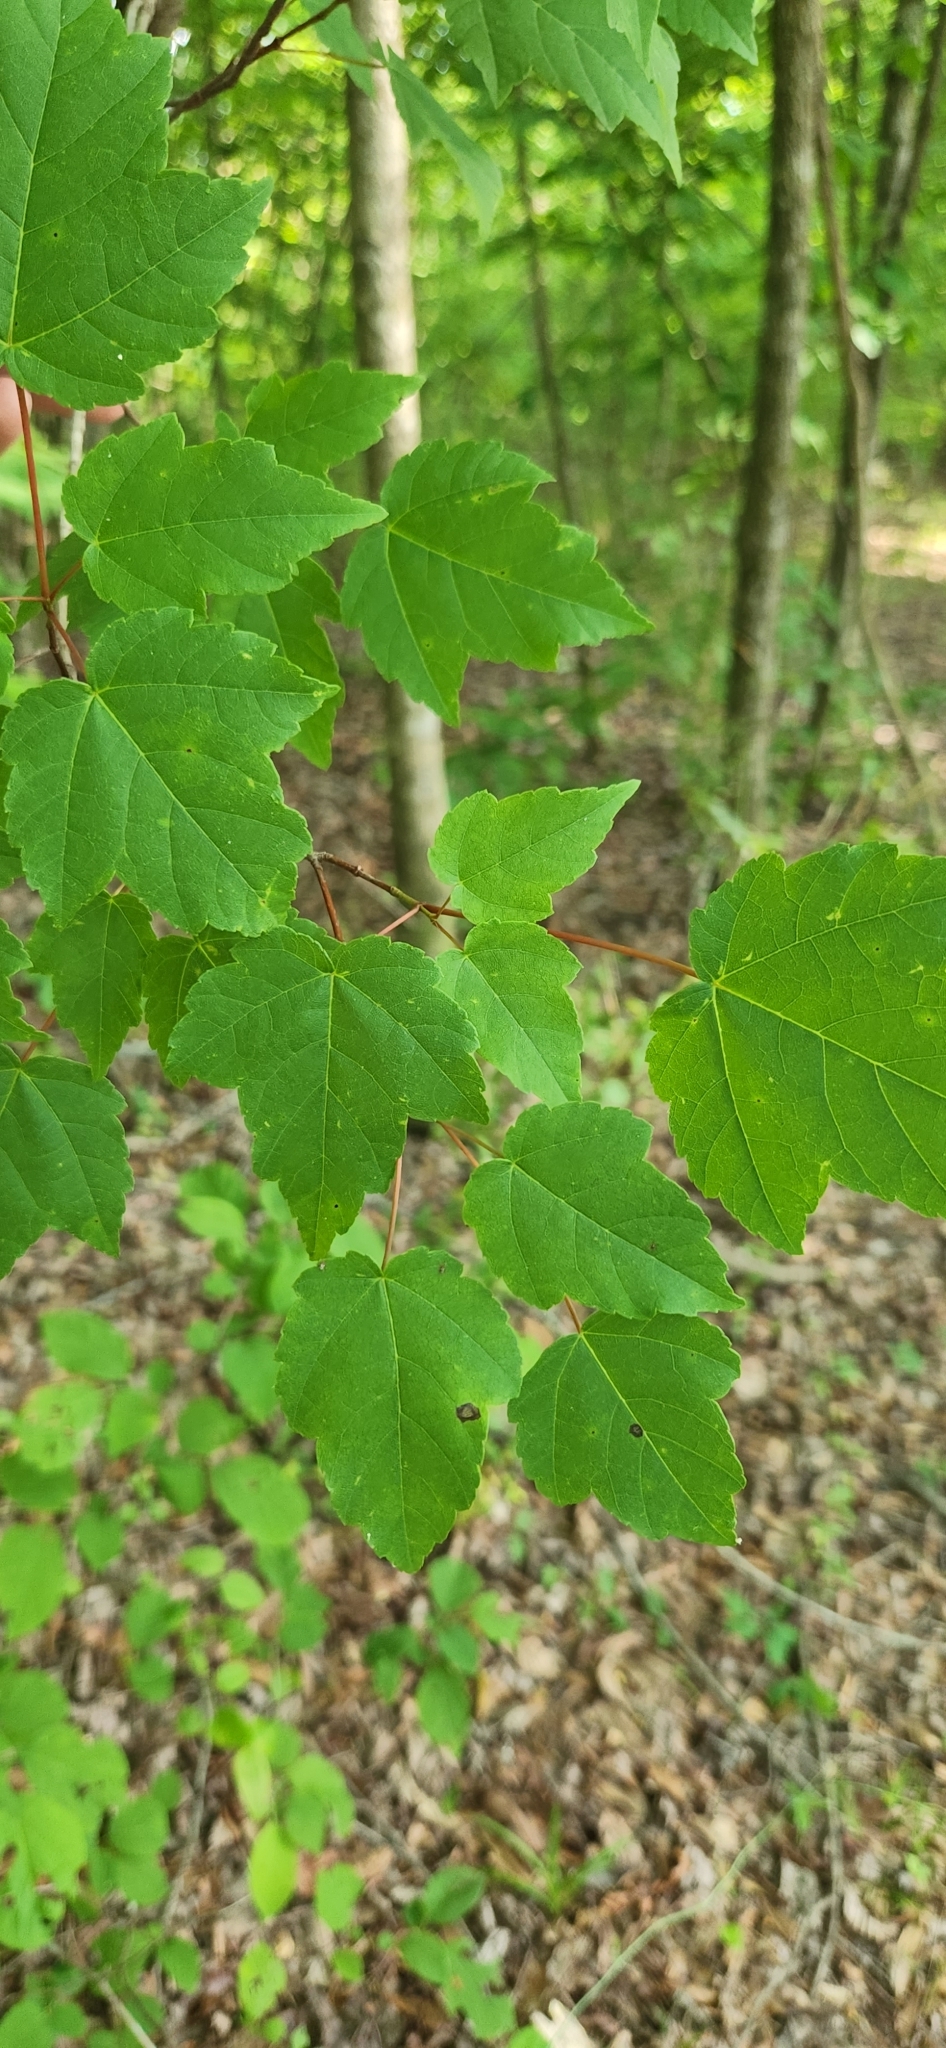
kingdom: Plantae
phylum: Tracheophyta
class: Magnoliopsida
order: Sapindales
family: Sapindaceae
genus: Acer
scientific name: Acer rubrum
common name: Red maple
